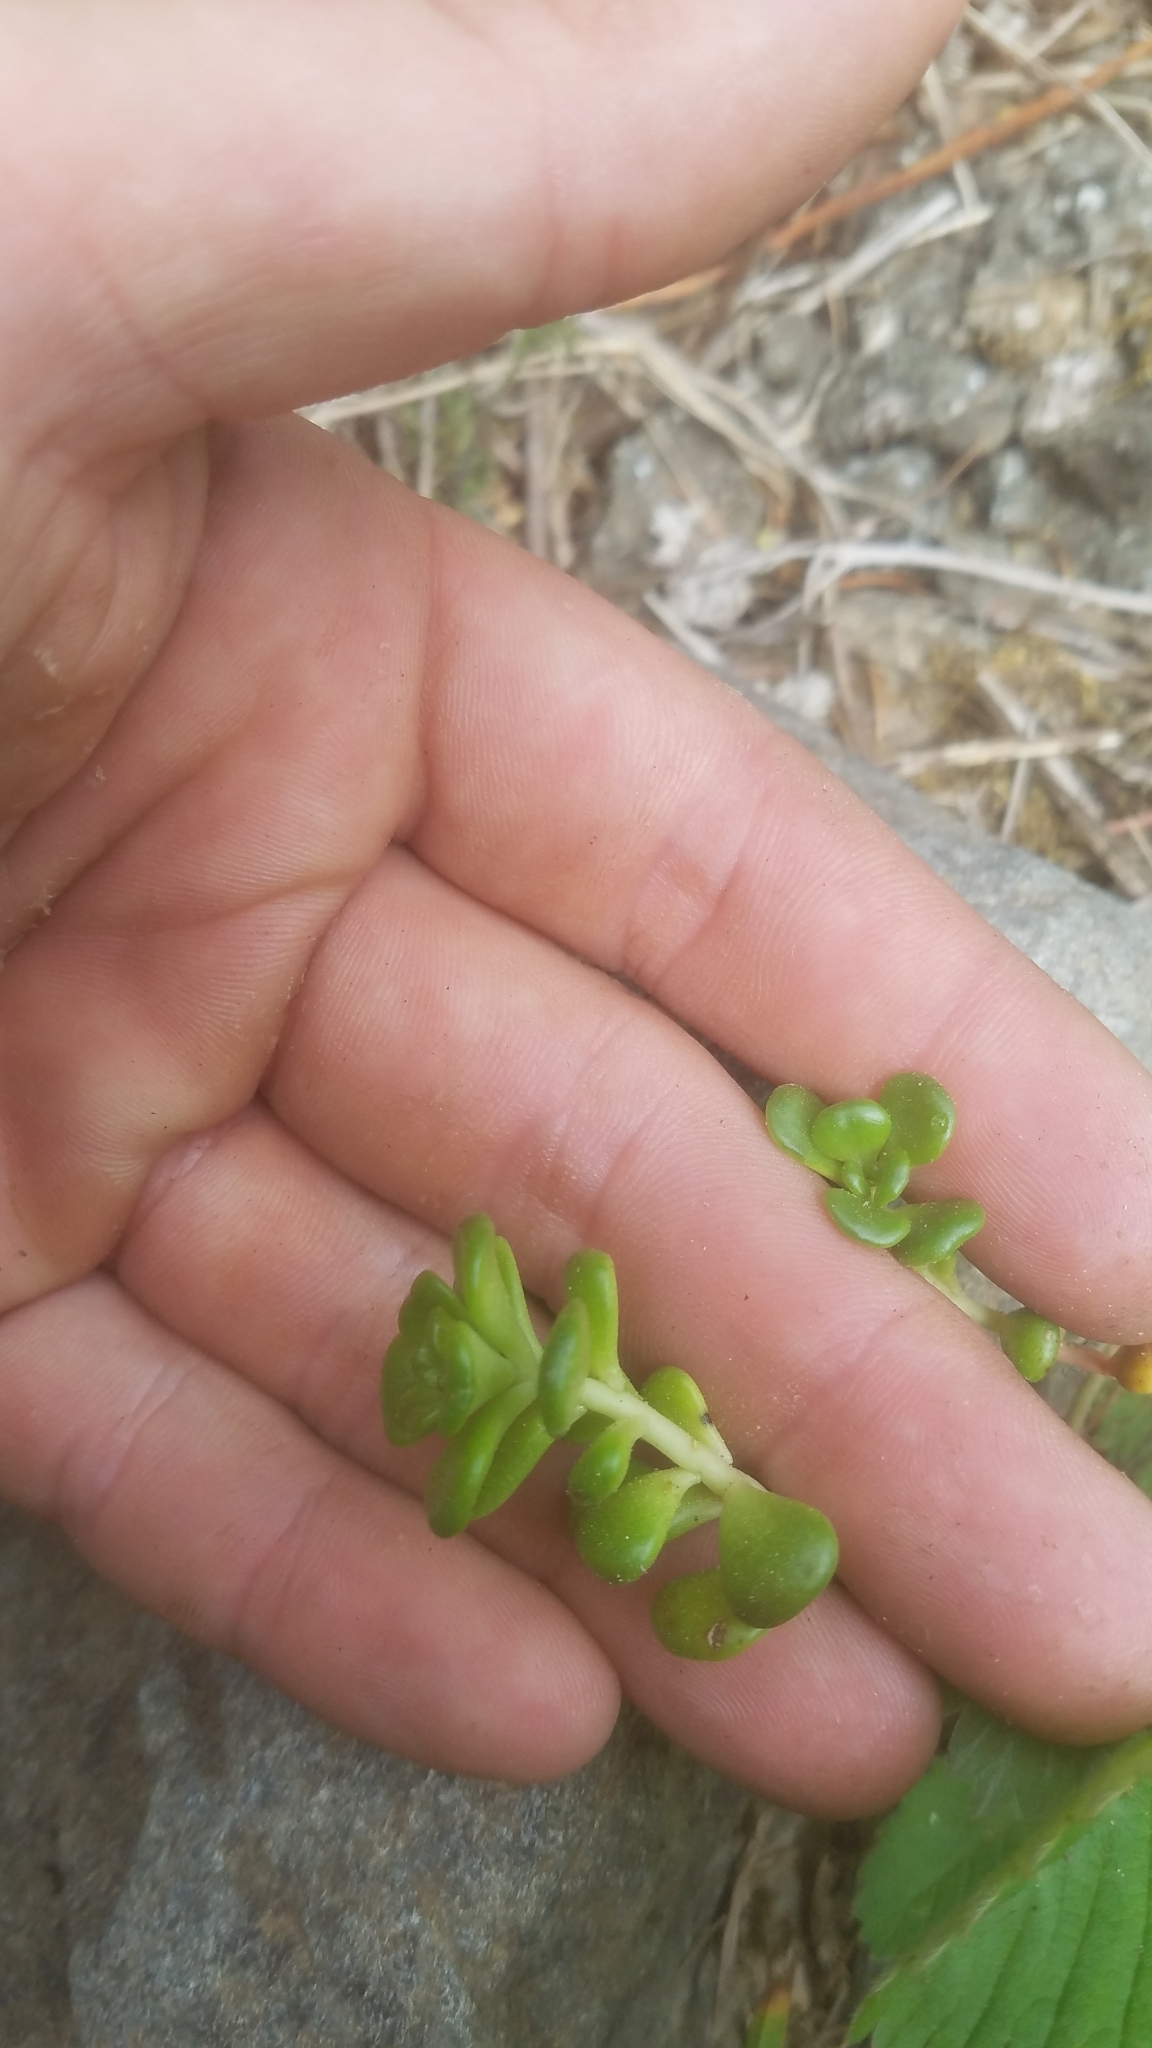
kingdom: Plantae
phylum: Tracheophyta
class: Magnoliopsida
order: Saxifragales
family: Crassulaceae
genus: Sedum
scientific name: Sedum oreganum
